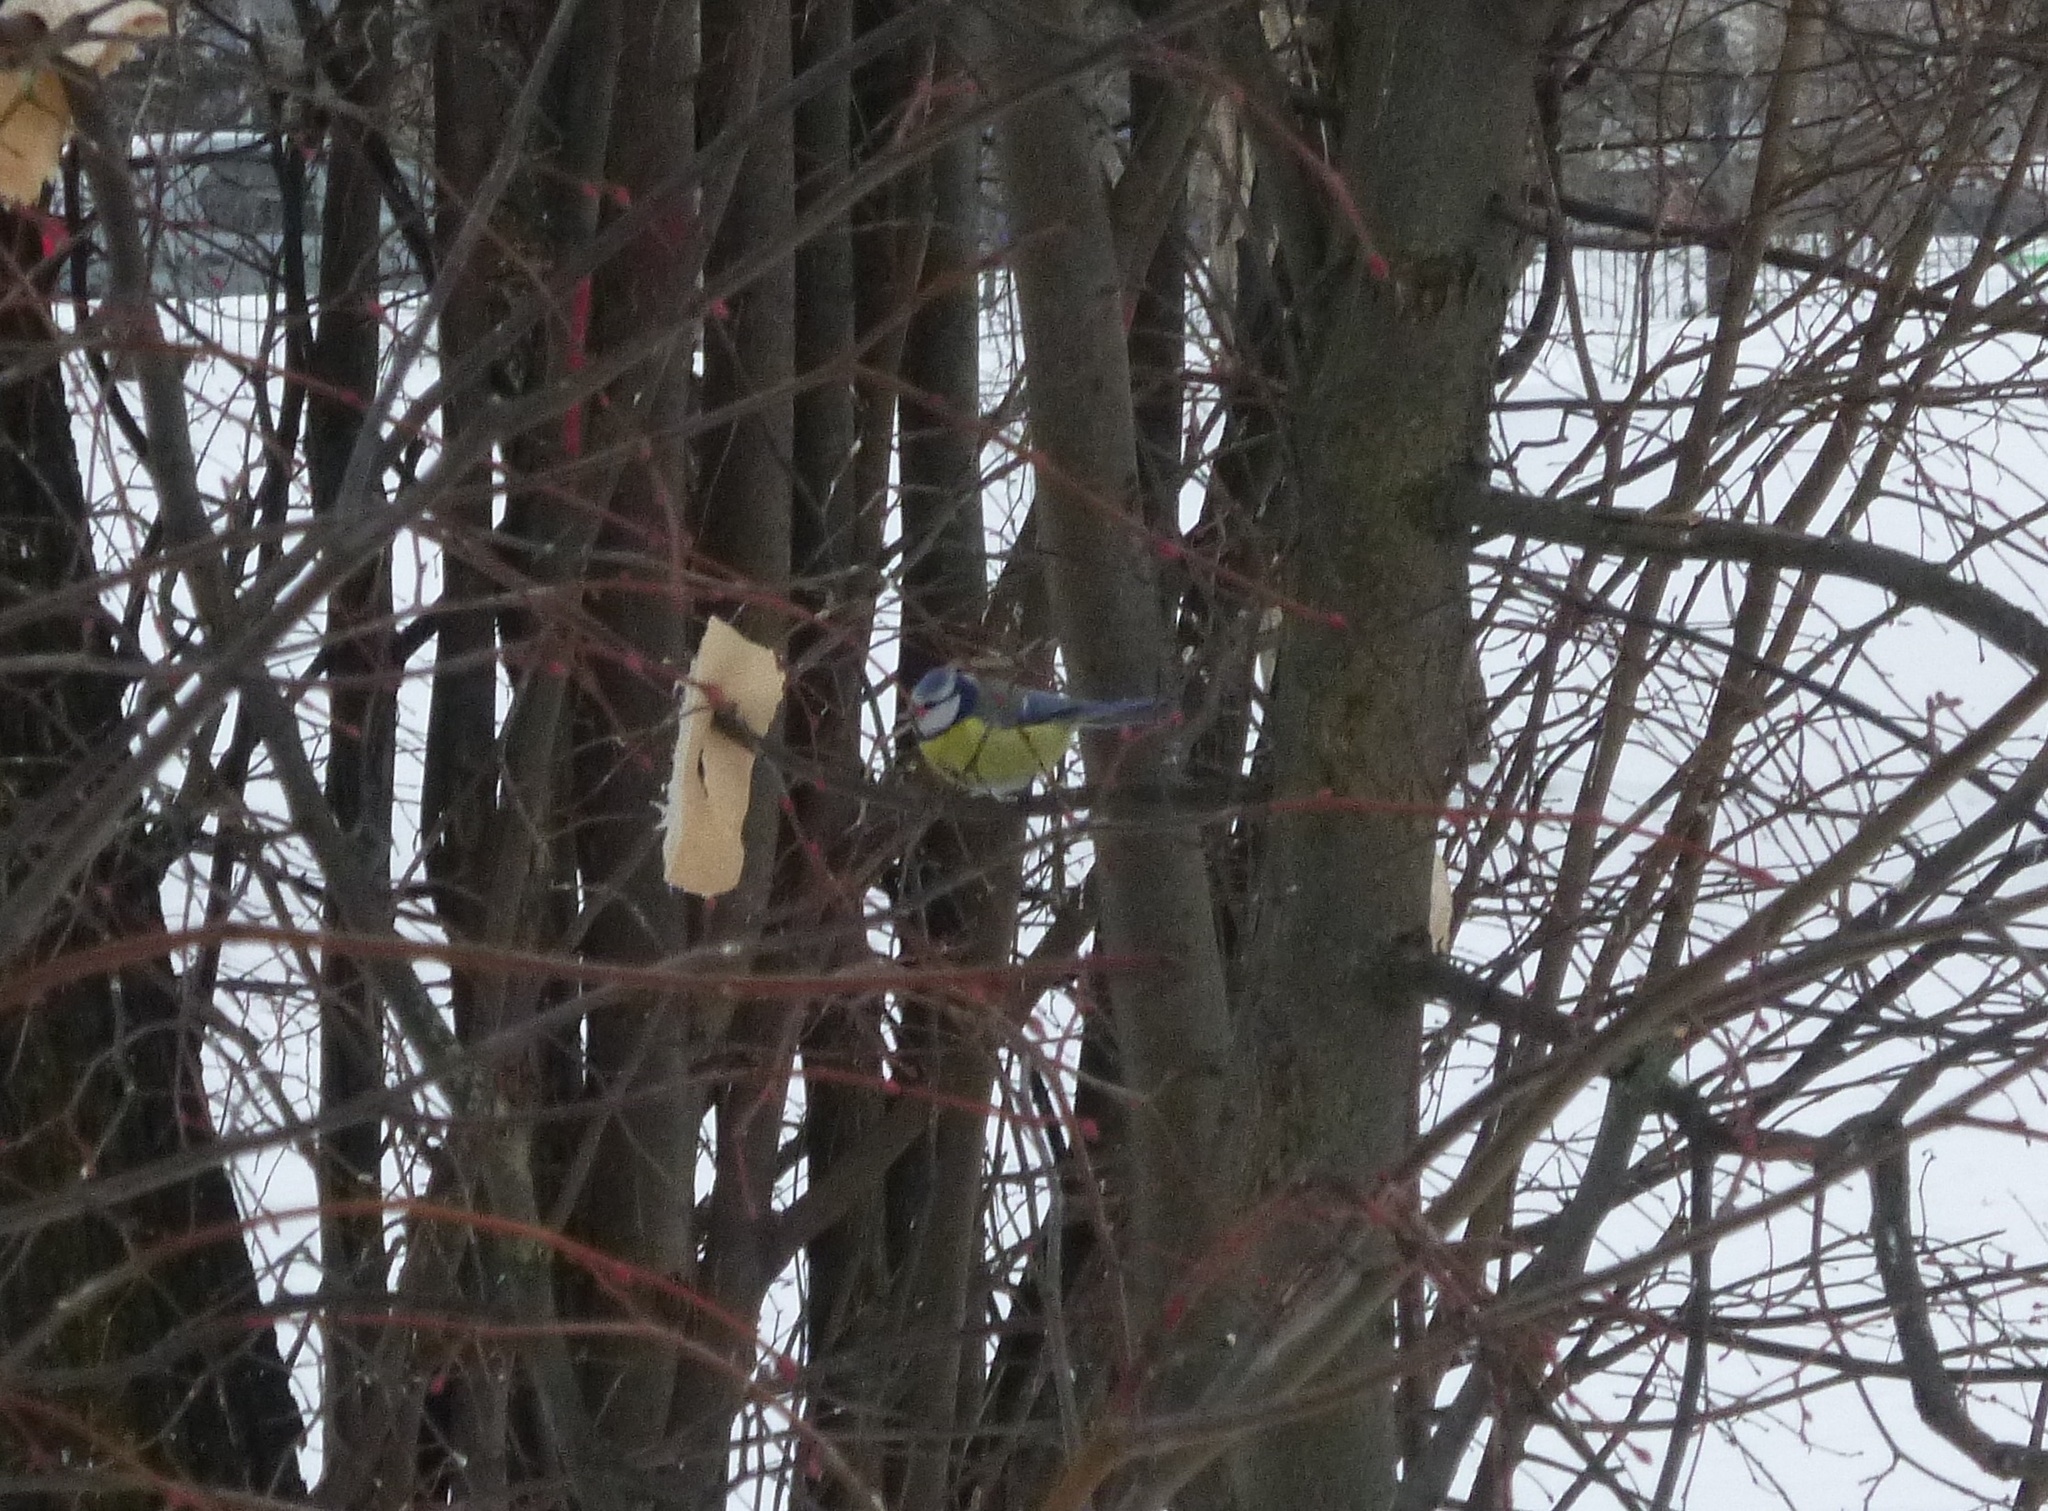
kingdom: Animalia
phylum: Chordata
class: Aves
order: Passeriformes
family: Paridae
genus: Cyanistes
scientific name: Cyanistes caeruleus
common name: Eurasian blue tit
